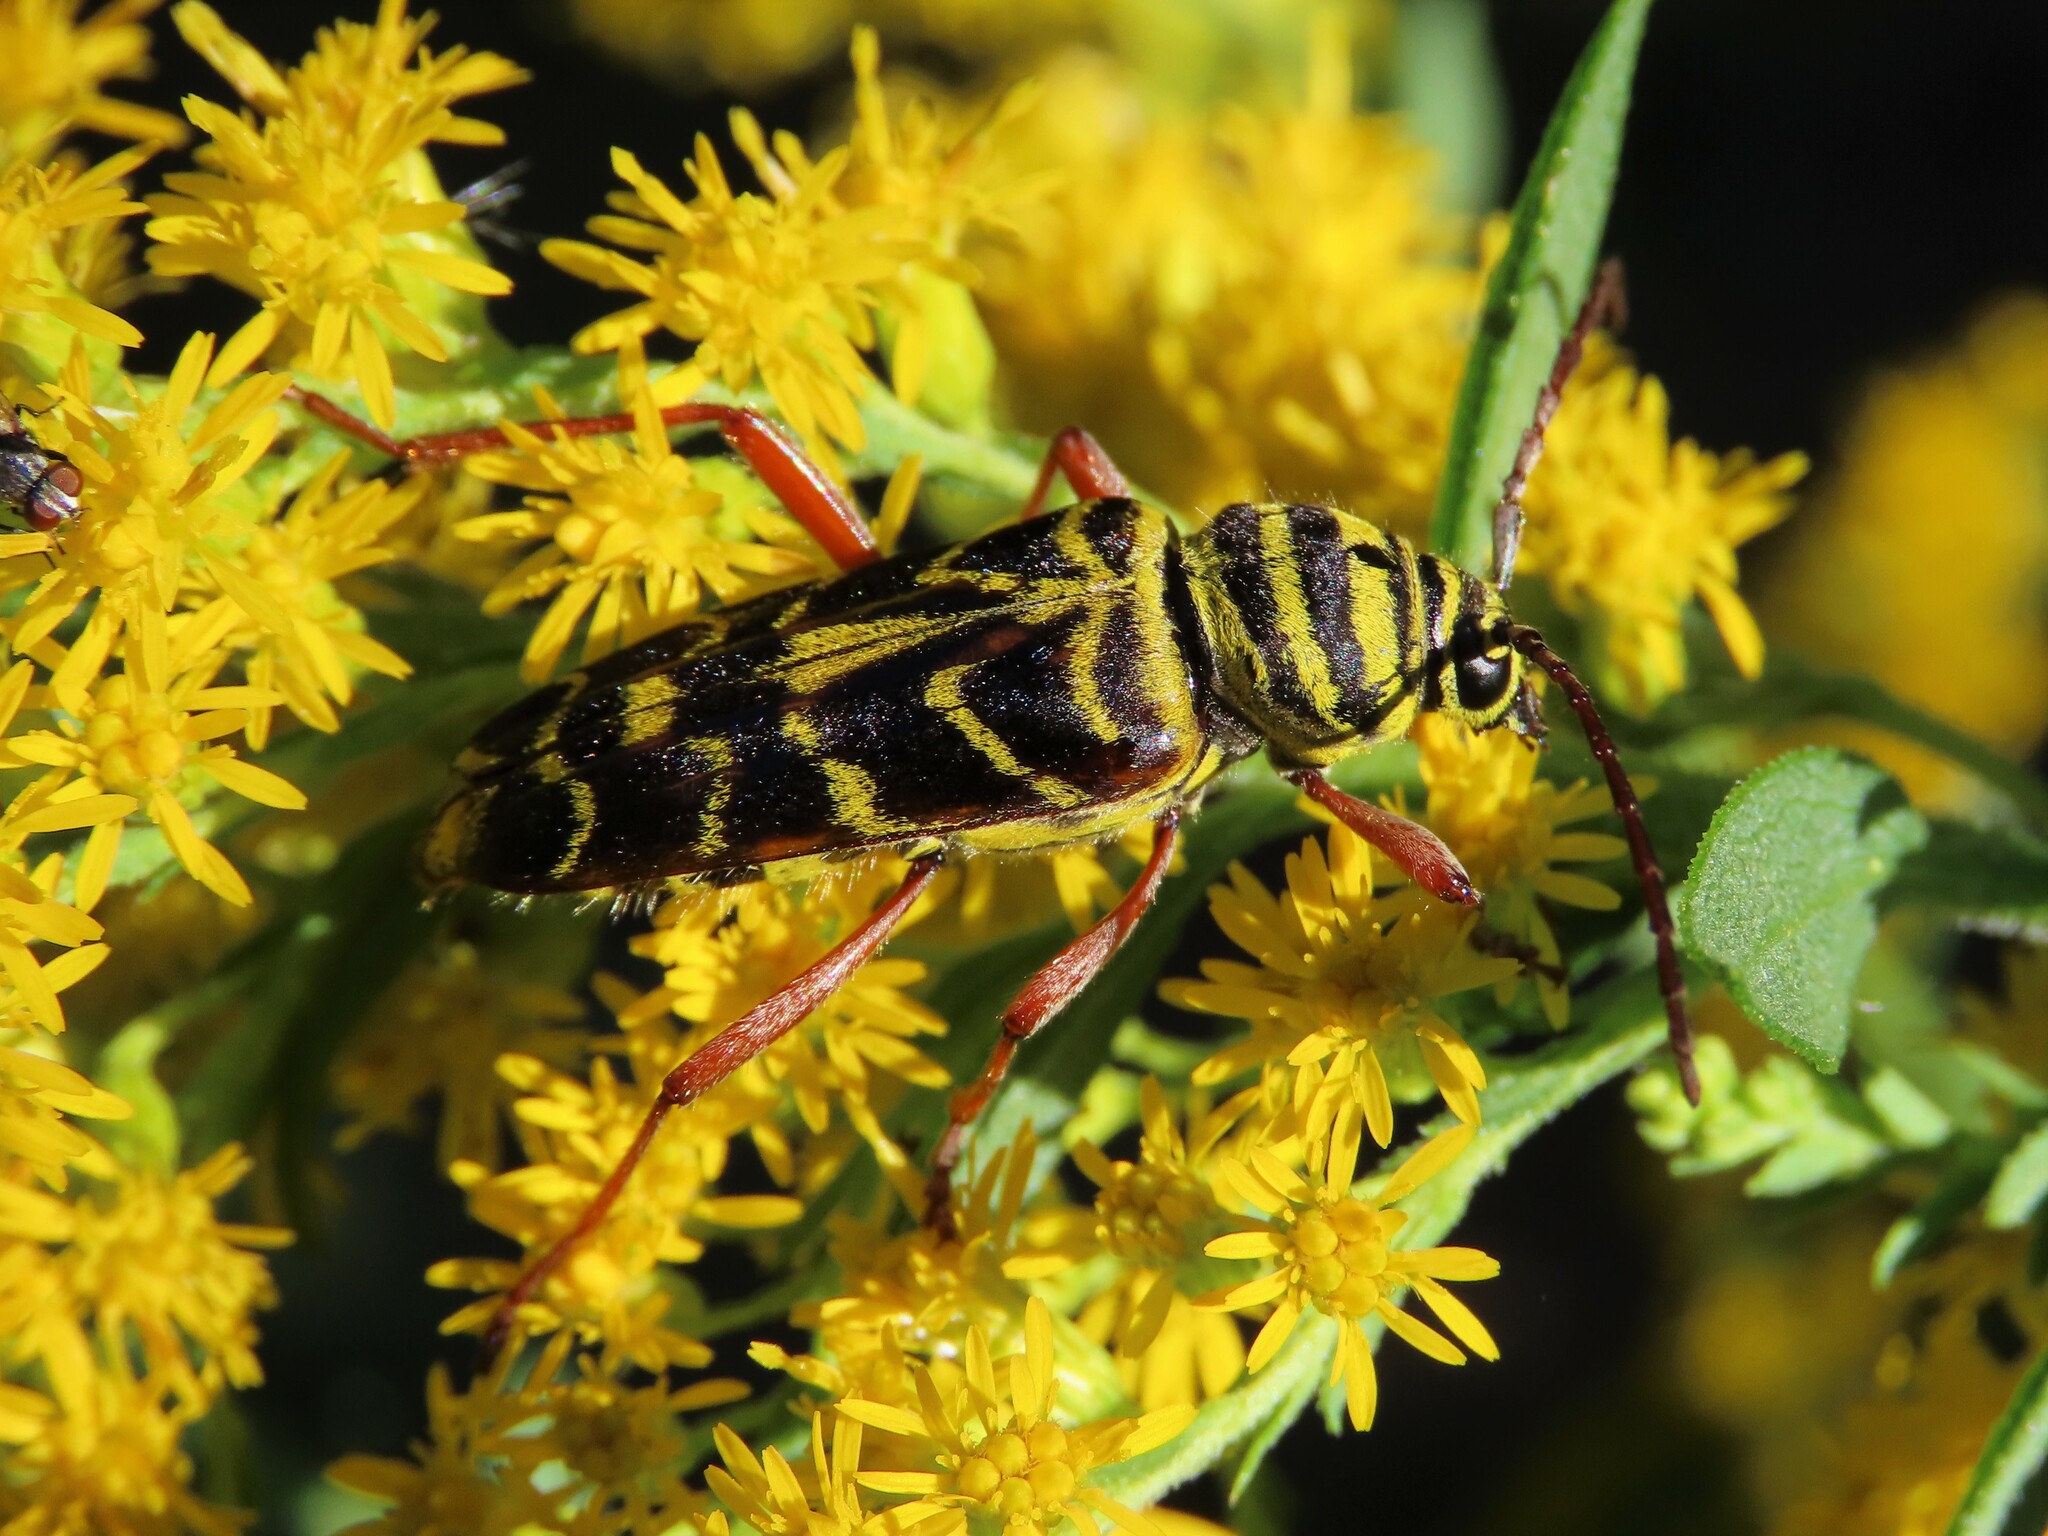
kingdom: Animalia
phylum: Arthropoda
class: Insecta
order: Coleoptera
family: Cerambycidae
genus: Megacyllene
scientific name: Megacyllene robiniae
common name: Locust borer
